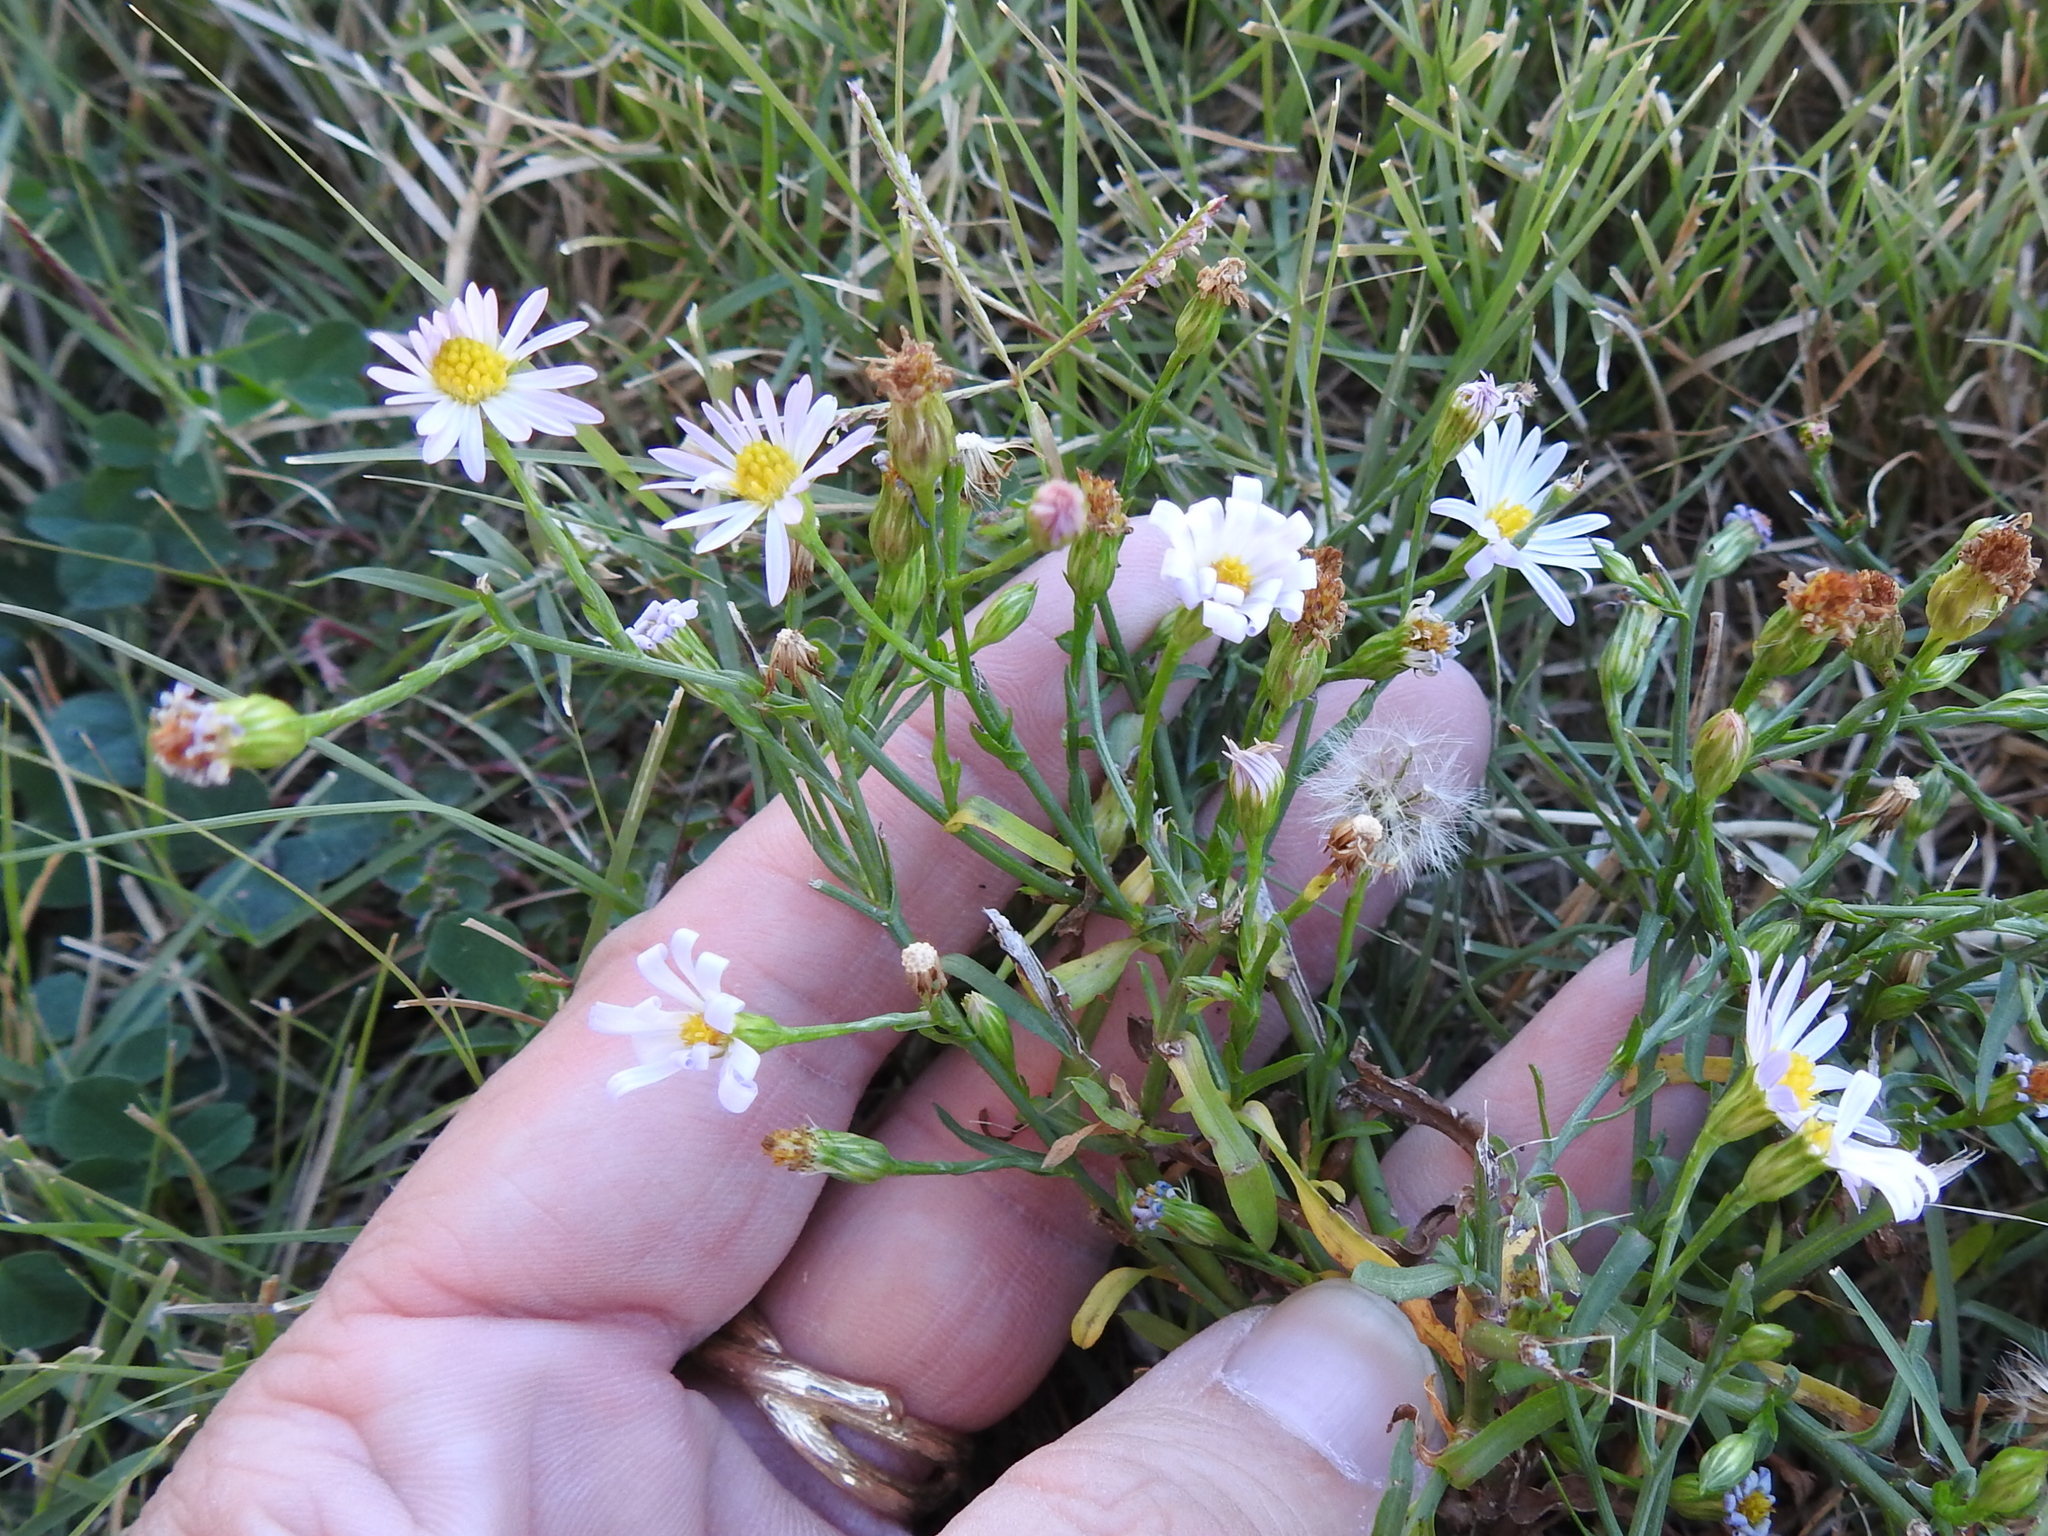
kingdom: Plantae
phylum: Tracheophyta
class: Magnoliopsida
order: Asterales
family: Asteraceae
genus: Symphyotrichum
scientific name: Symphyotrichum divaricatum
